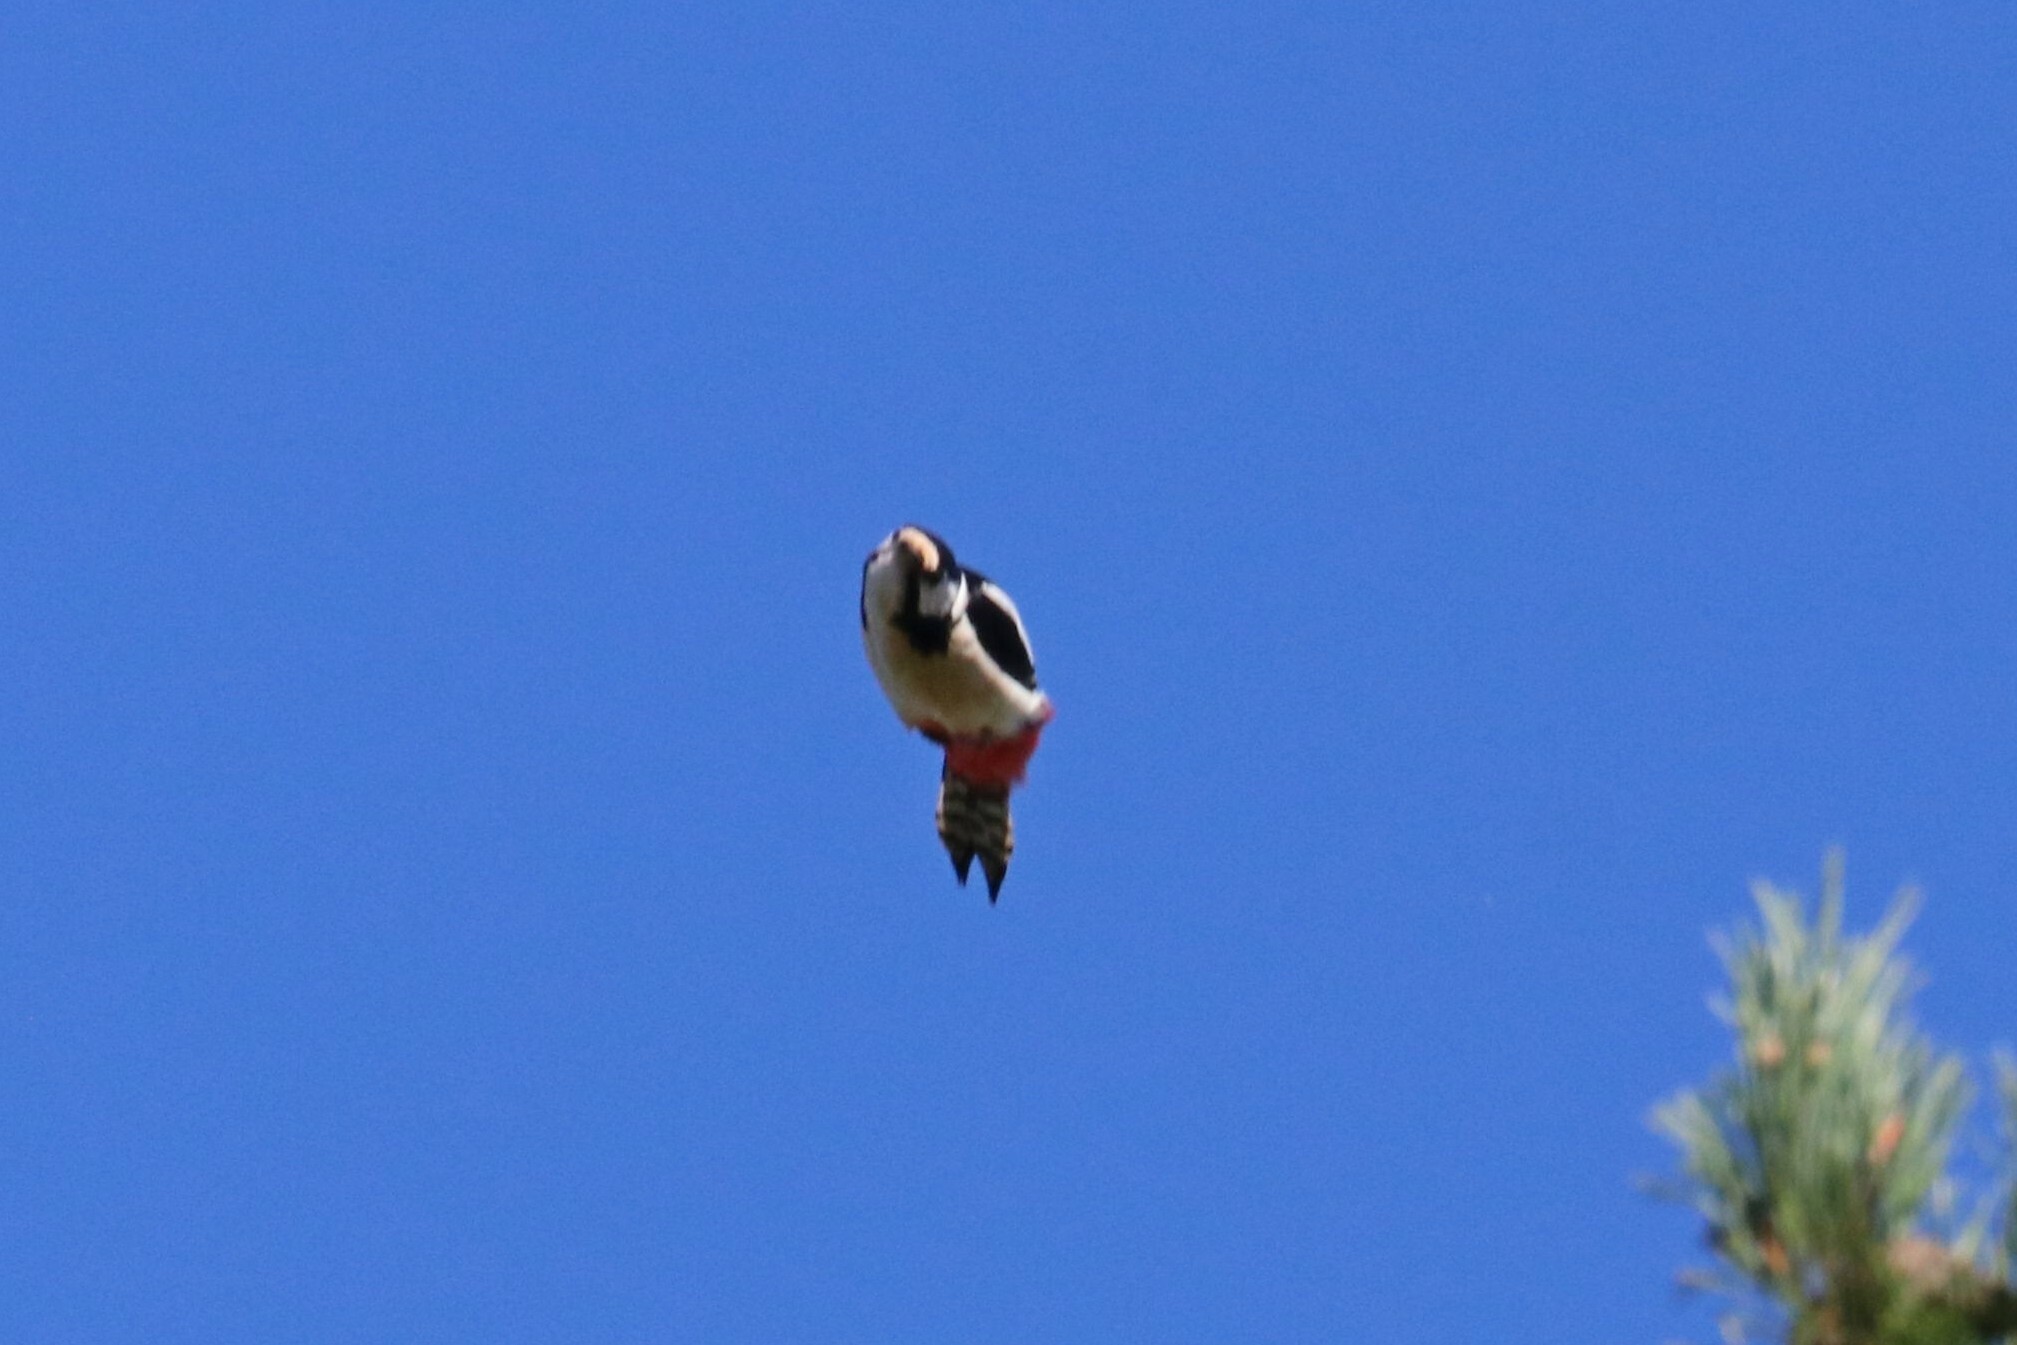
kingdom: Animalia
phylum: Chordata
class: Aves
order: Piciformes
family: Picidae
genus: Dendrocopos
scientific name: Dendrocopos major
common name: Great spotted woodpecker
